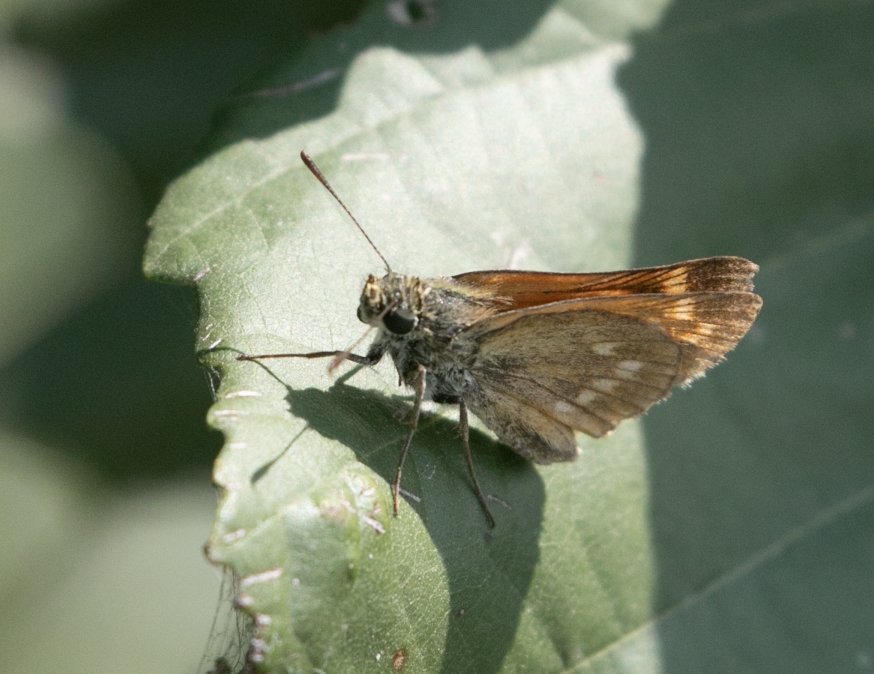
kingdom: Animalia
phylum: Arthropoda
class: Insecta
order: Lepidoptera
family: Hesperiidae
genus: Ochlodes
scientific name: Ochlodes venata
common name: Large skipper
